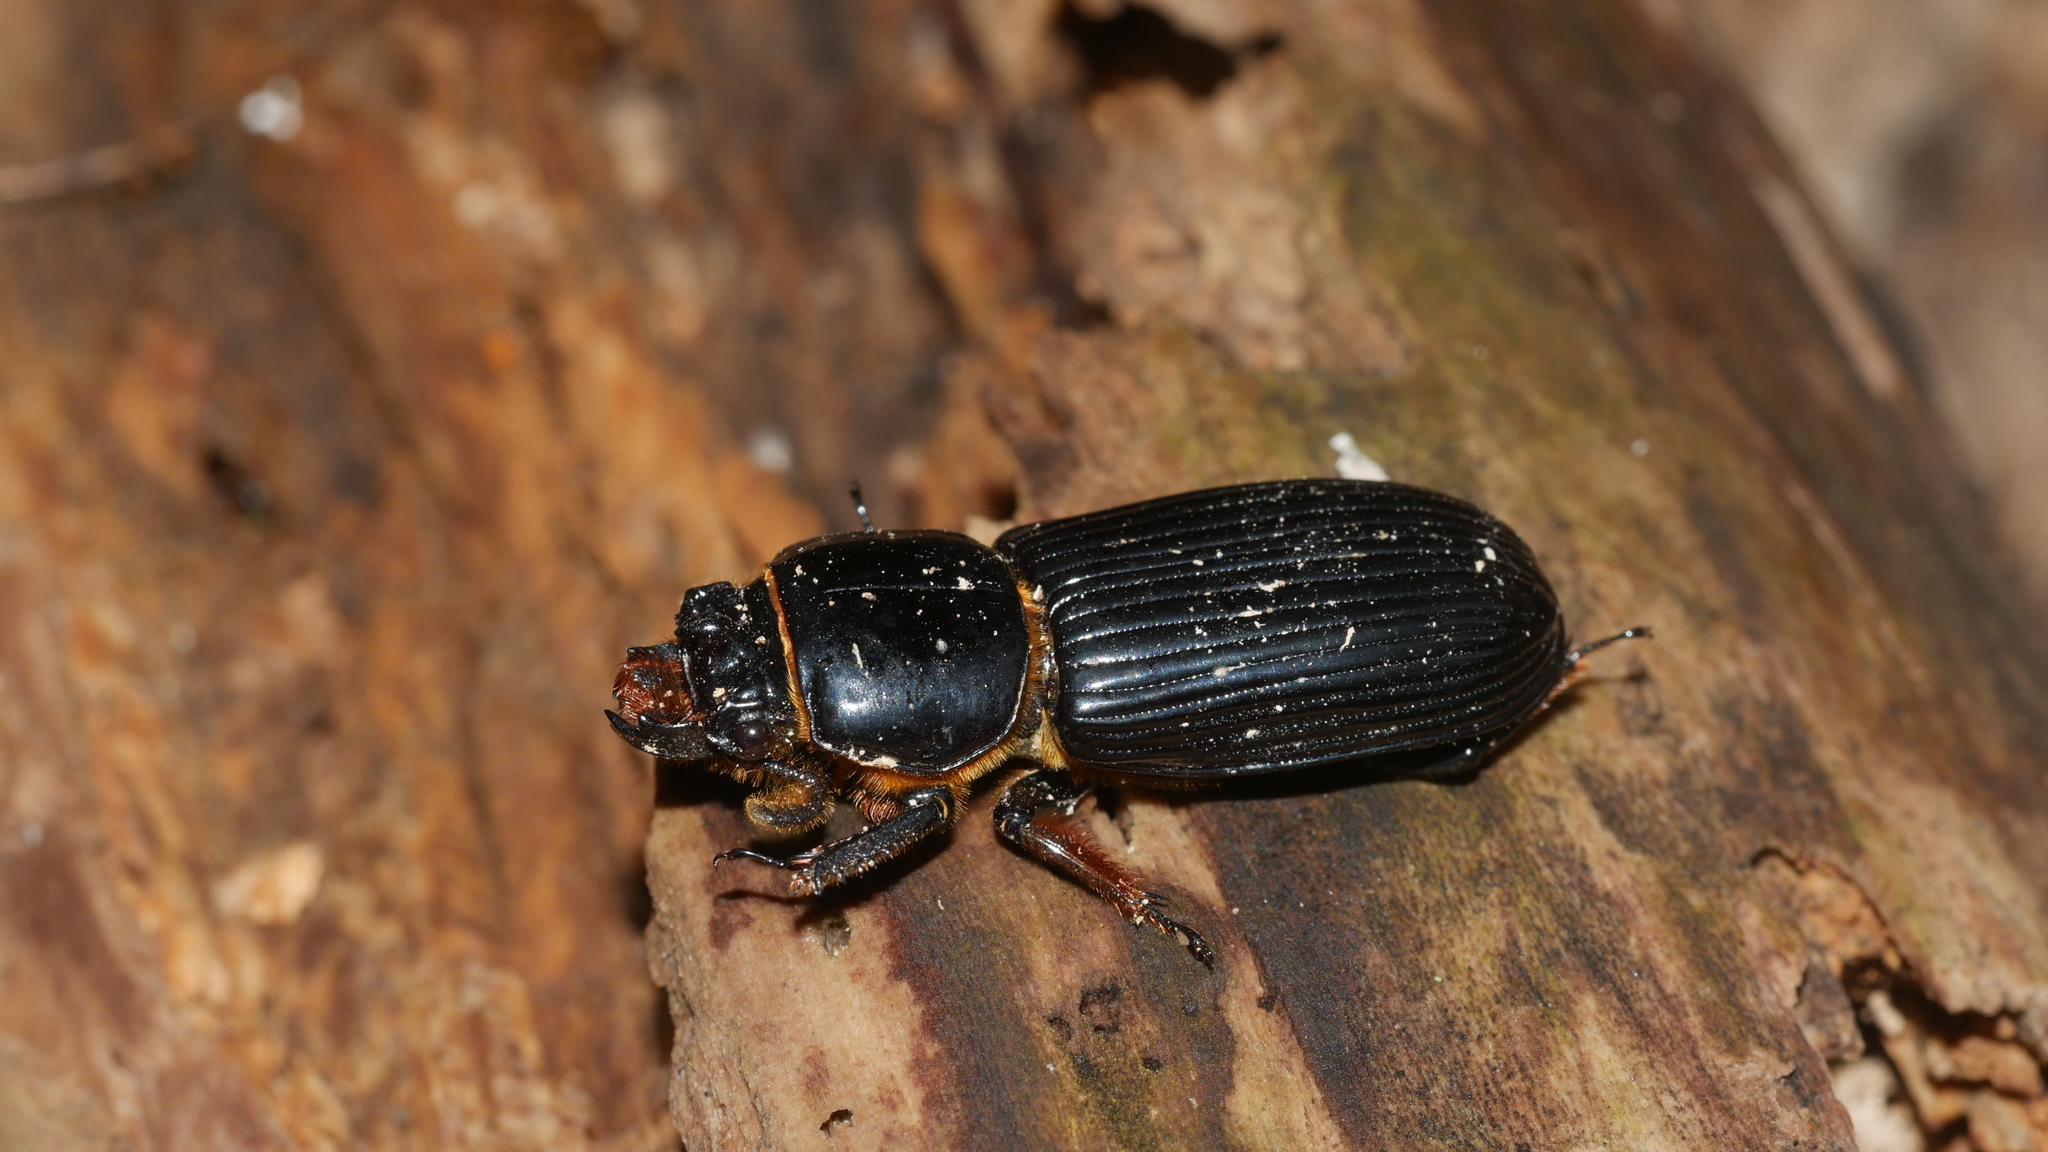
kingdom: Animalia
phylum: Arthropoda
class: Insecta
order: Coleoptera
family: Passalidae
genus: Odontotaenius
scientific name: Odontotaenius disjunctus
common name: Patent leather beetle
